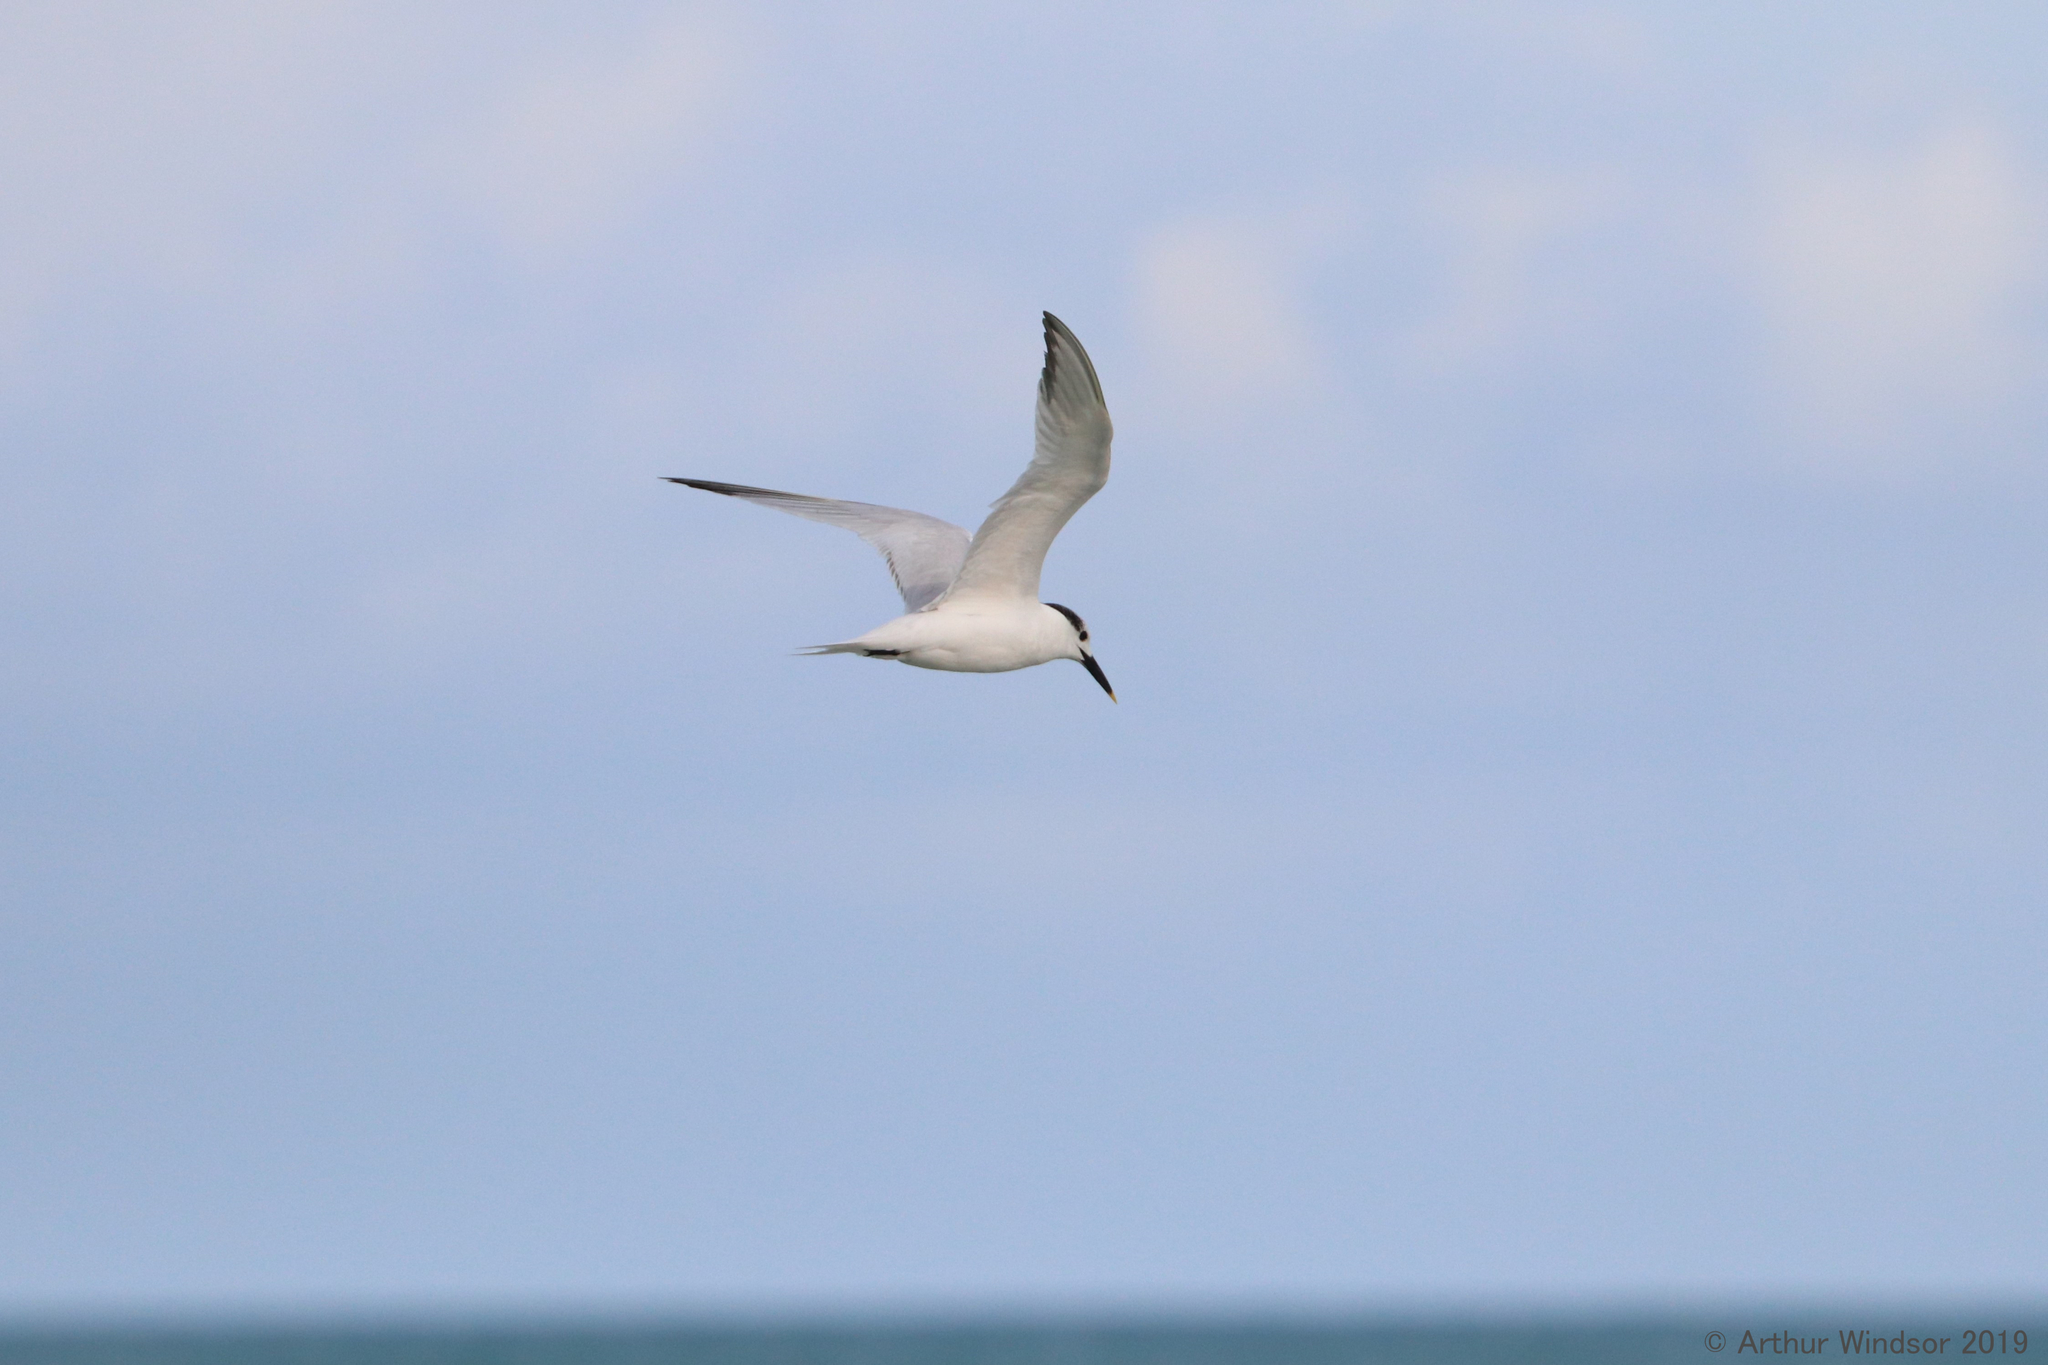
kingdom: Animalia
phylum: Chordata
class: Aves
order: Charadriiformes
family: Laridae
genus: Thalasseus
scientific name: Thalasseus sandvicensis
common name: Sandwich tern
